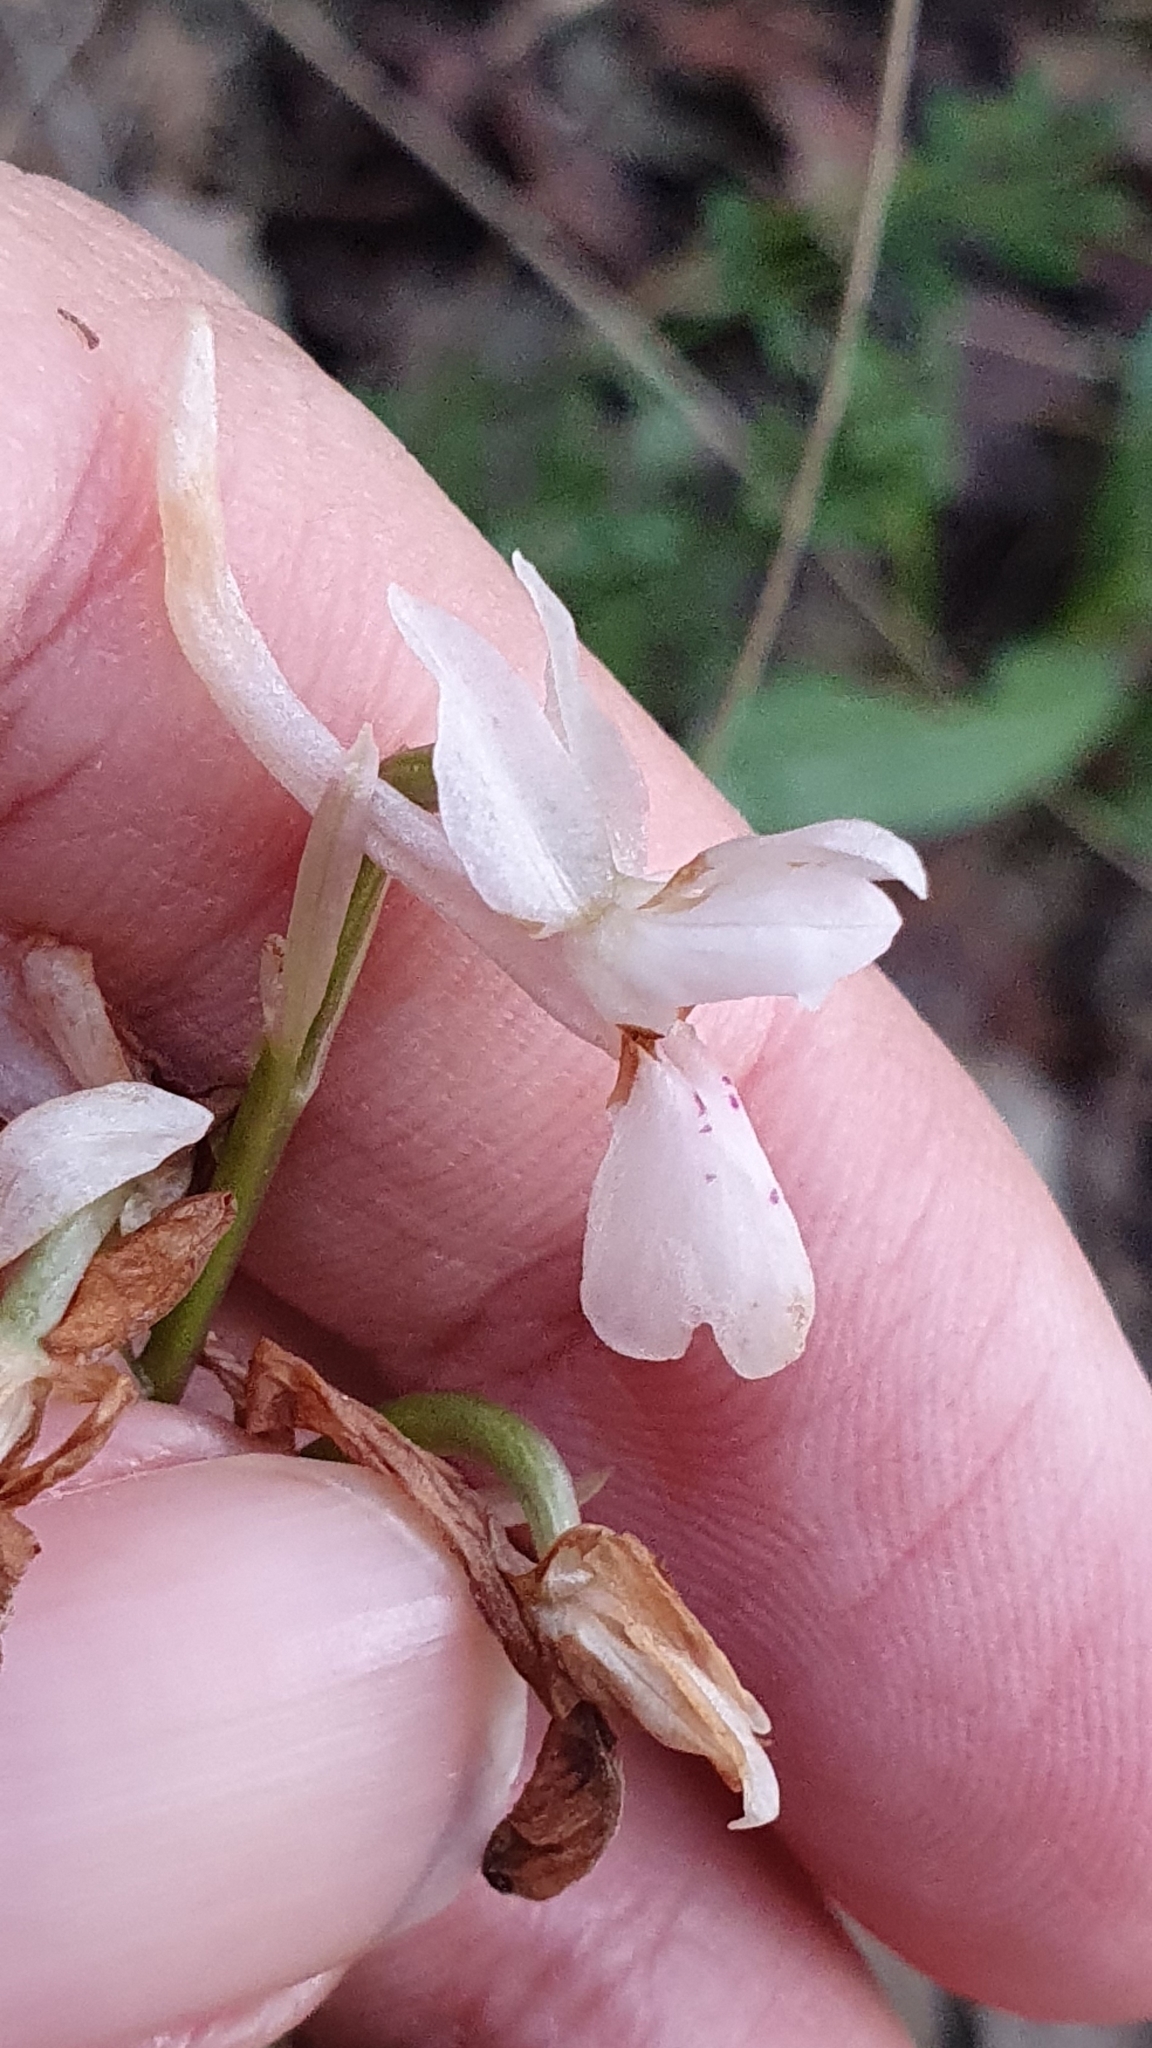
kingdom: Plantae
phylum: Tracheophyta
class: Liliopsida
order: Asparagales
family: Orchidaceae
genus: Orchis
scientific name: Orchis laeta
